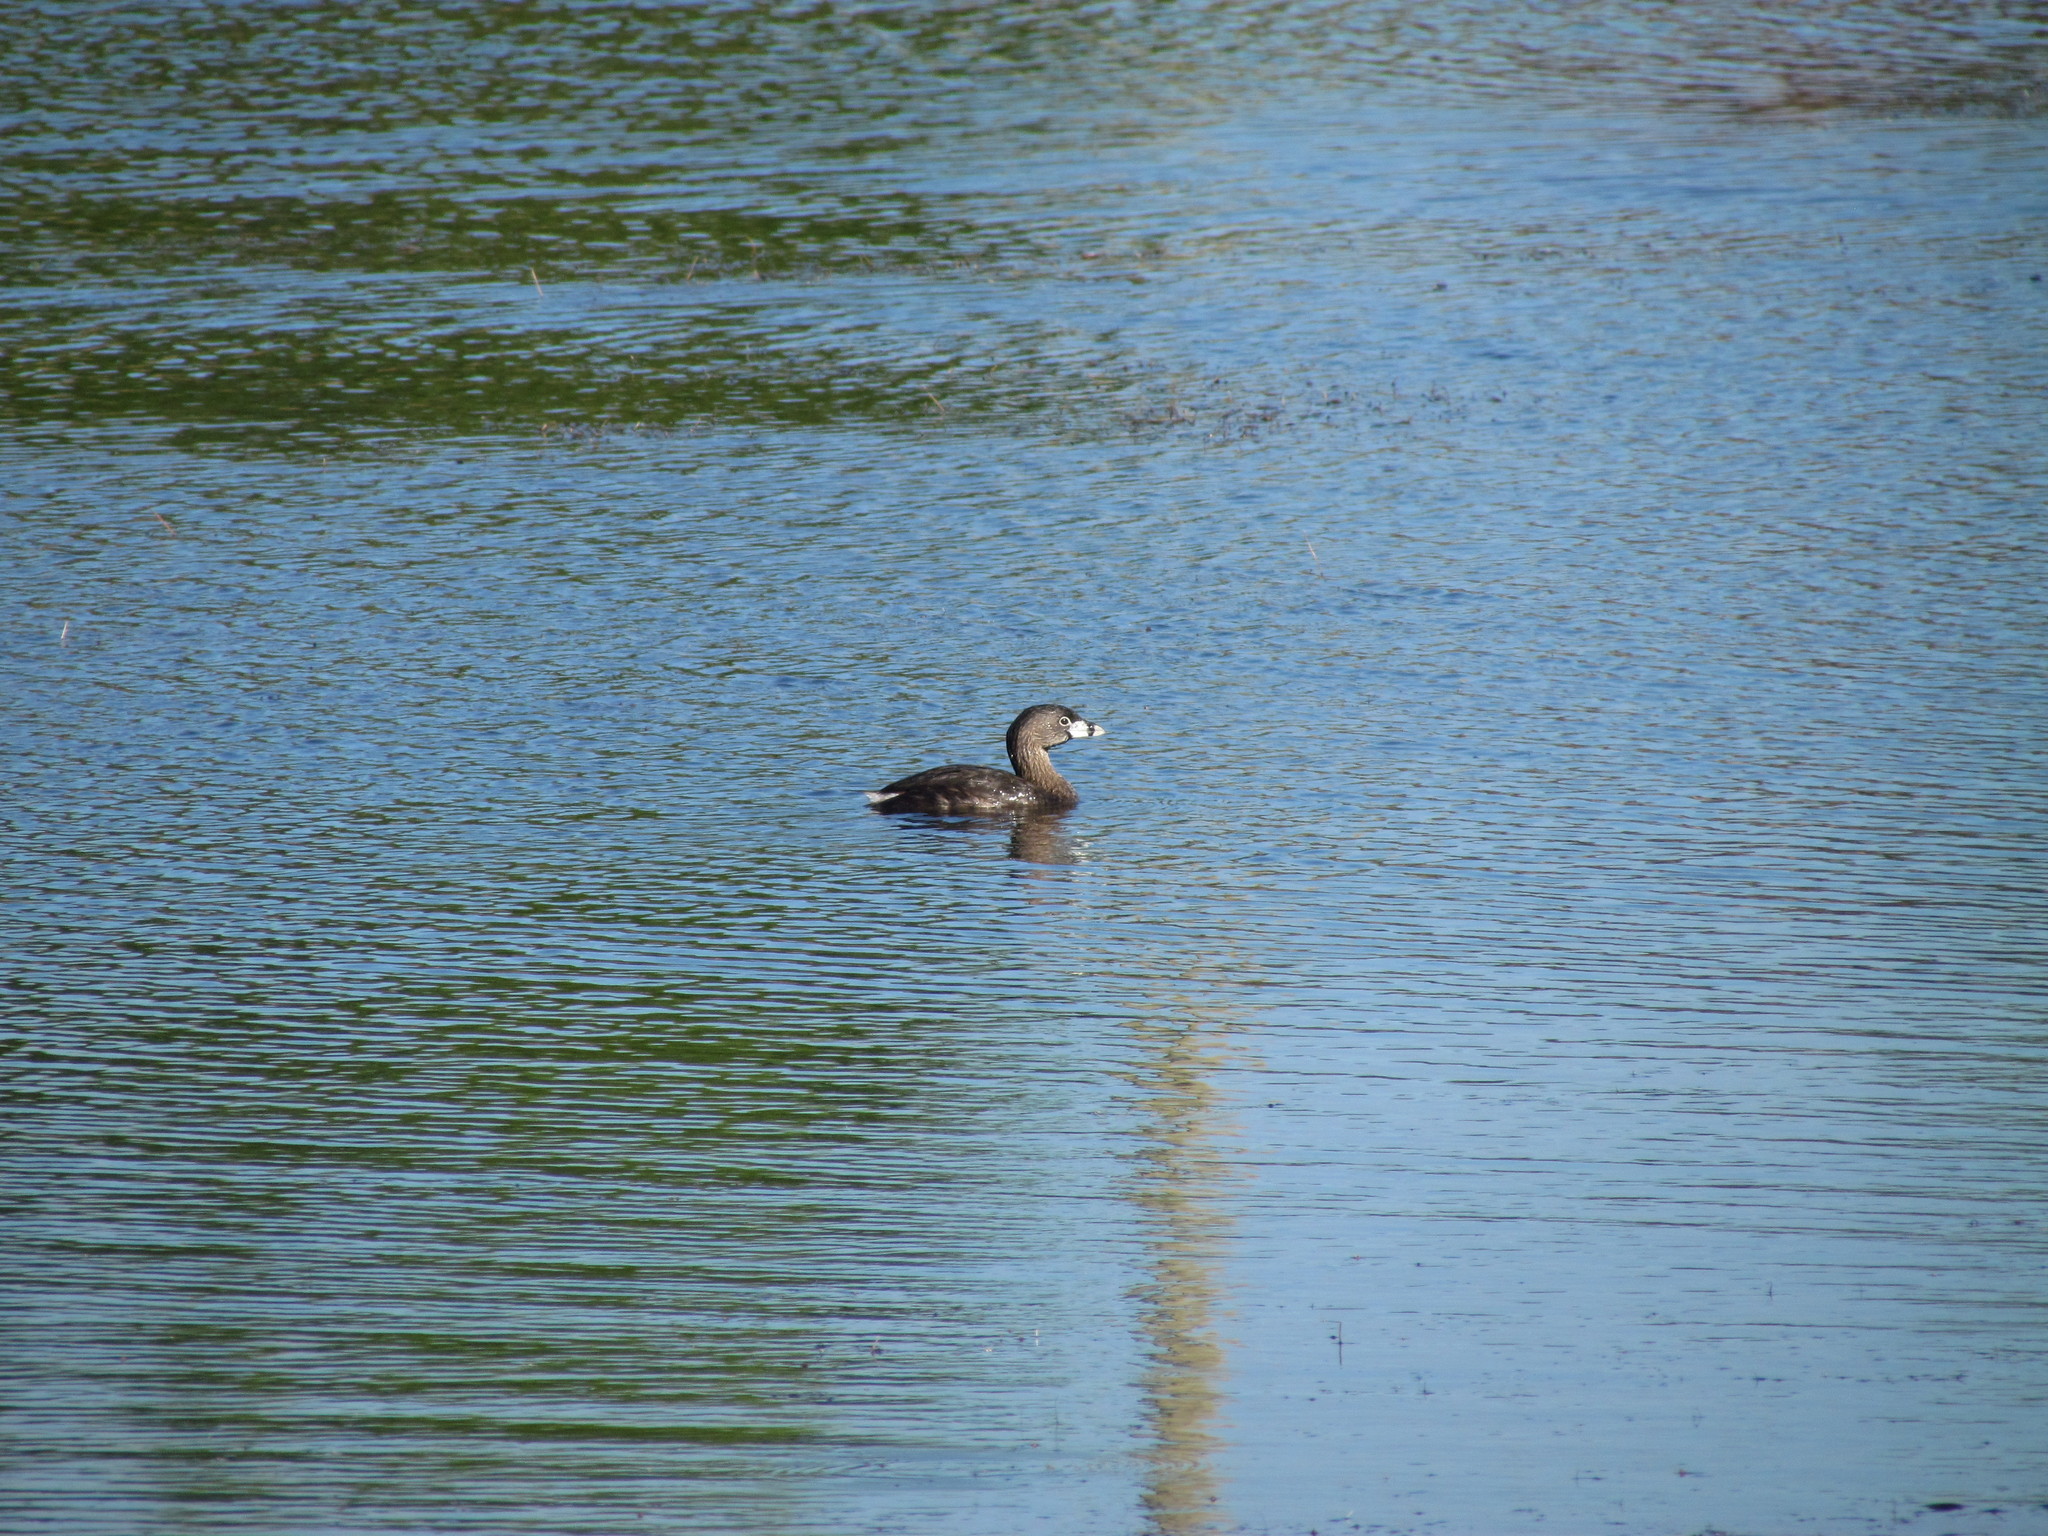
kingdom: Animalia
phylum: Chordata
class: Aves
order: Podicipediformes
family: Podicipedidae
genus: Podilymbus
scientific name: Podilymbus podiceps
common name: Pied-billed grebe
